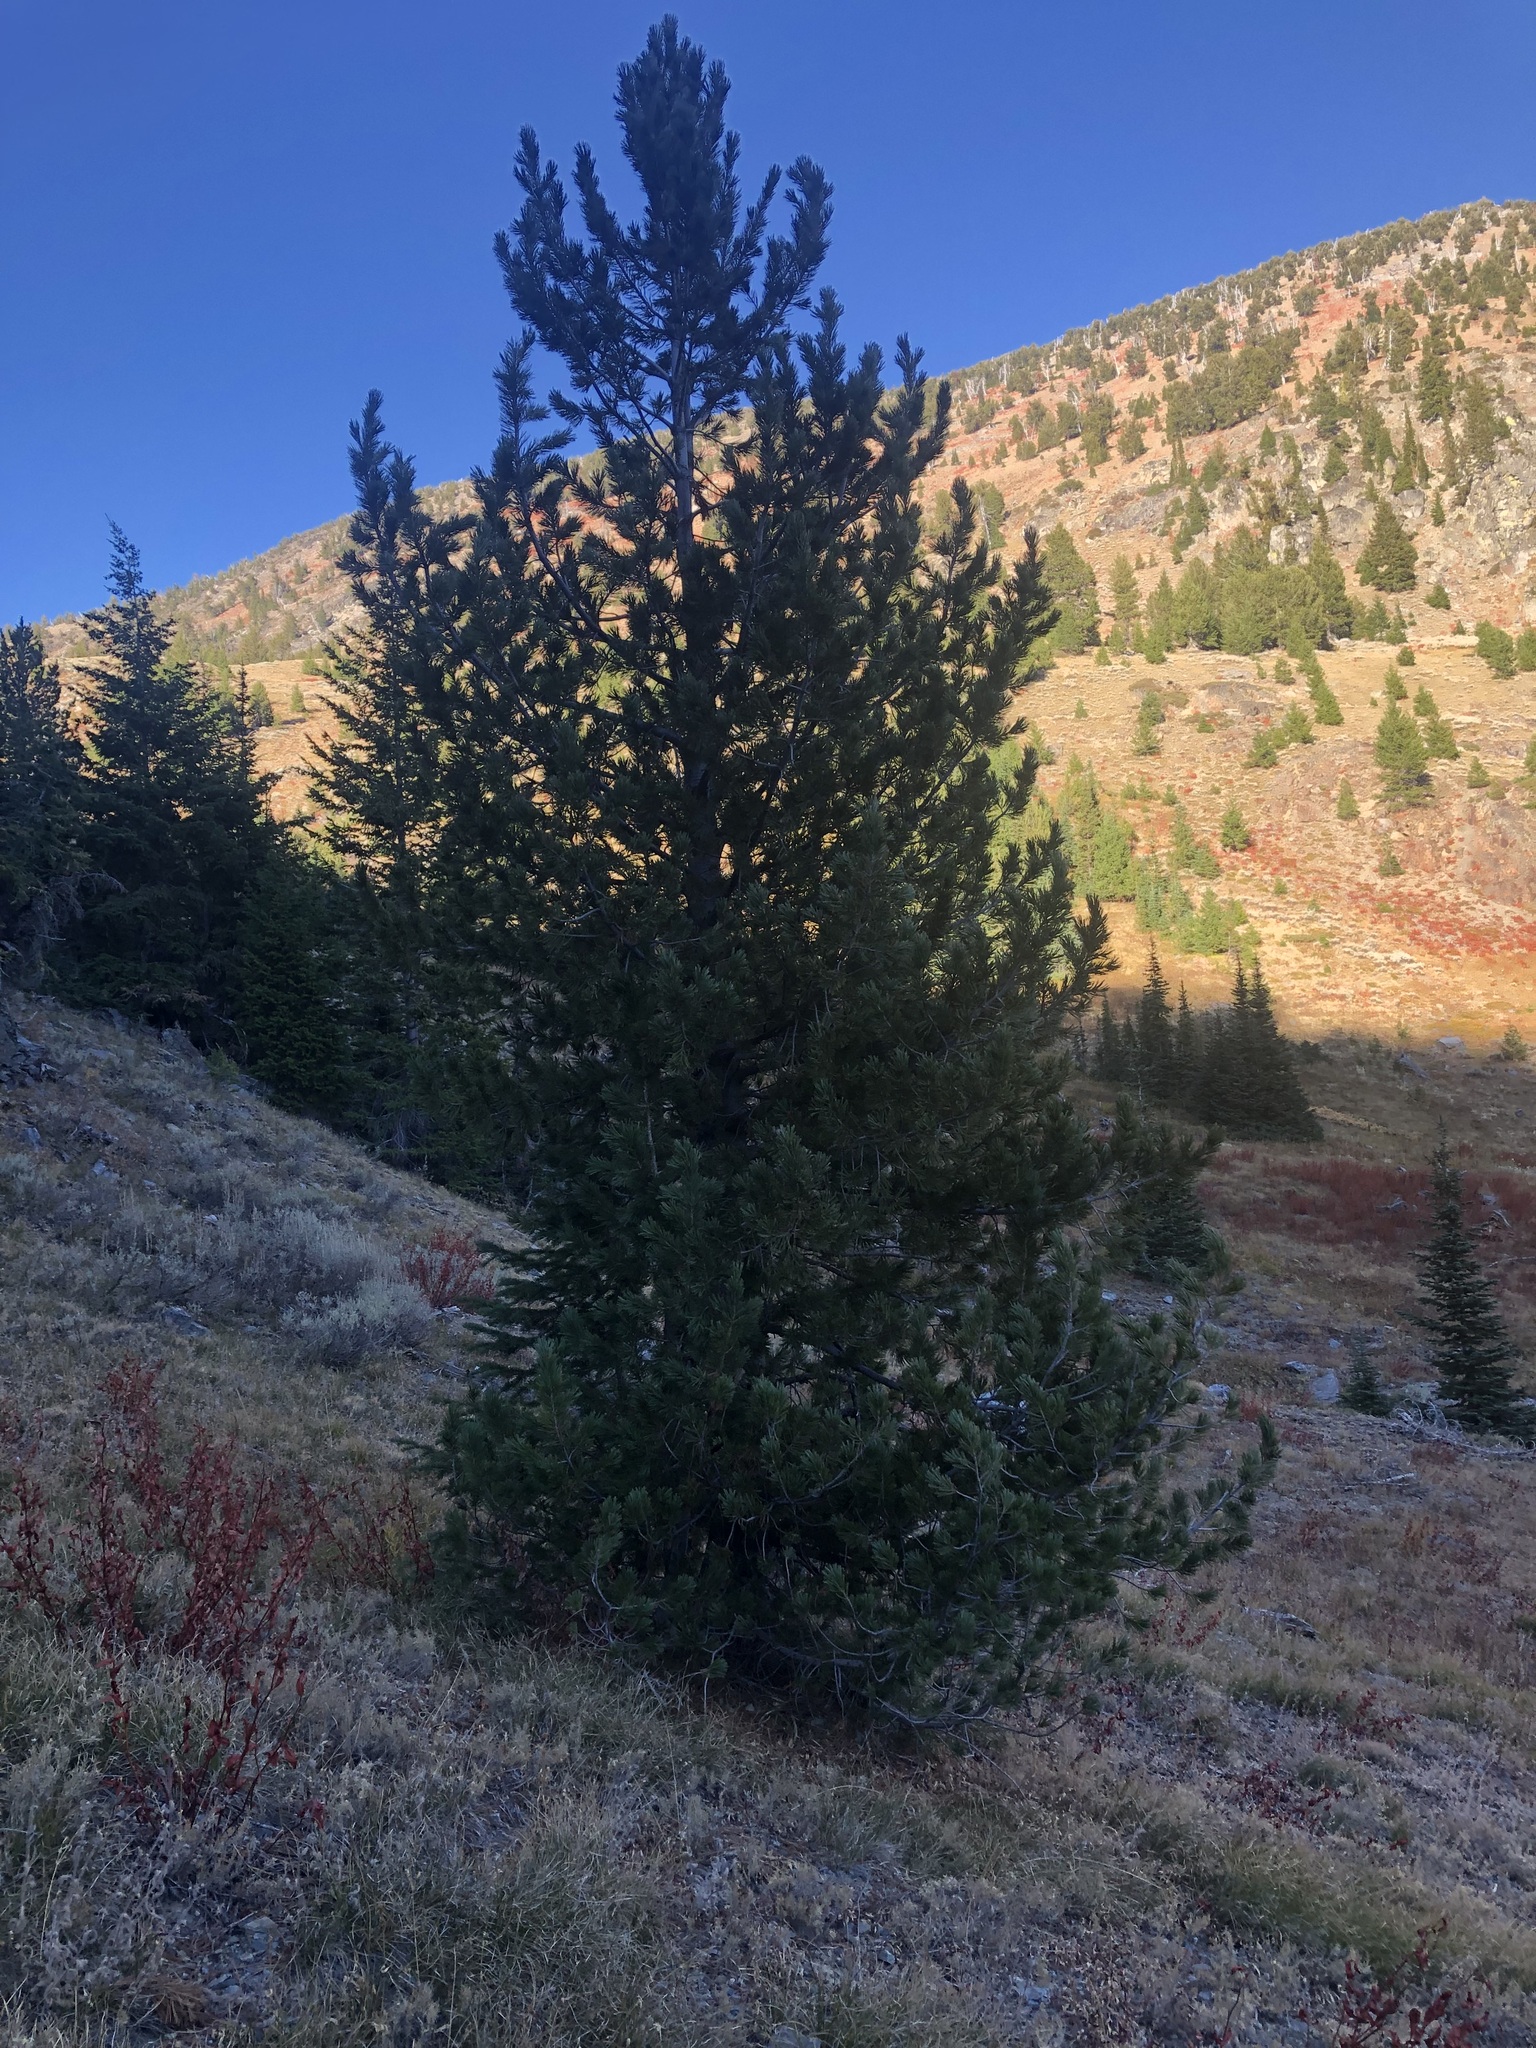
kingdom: Plantae
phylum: Tracheophyta
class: Pinopsida
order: Pinales
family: Pinaceae
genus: Pinus
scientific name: Pinus albicaulis
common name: Whitebark pine
